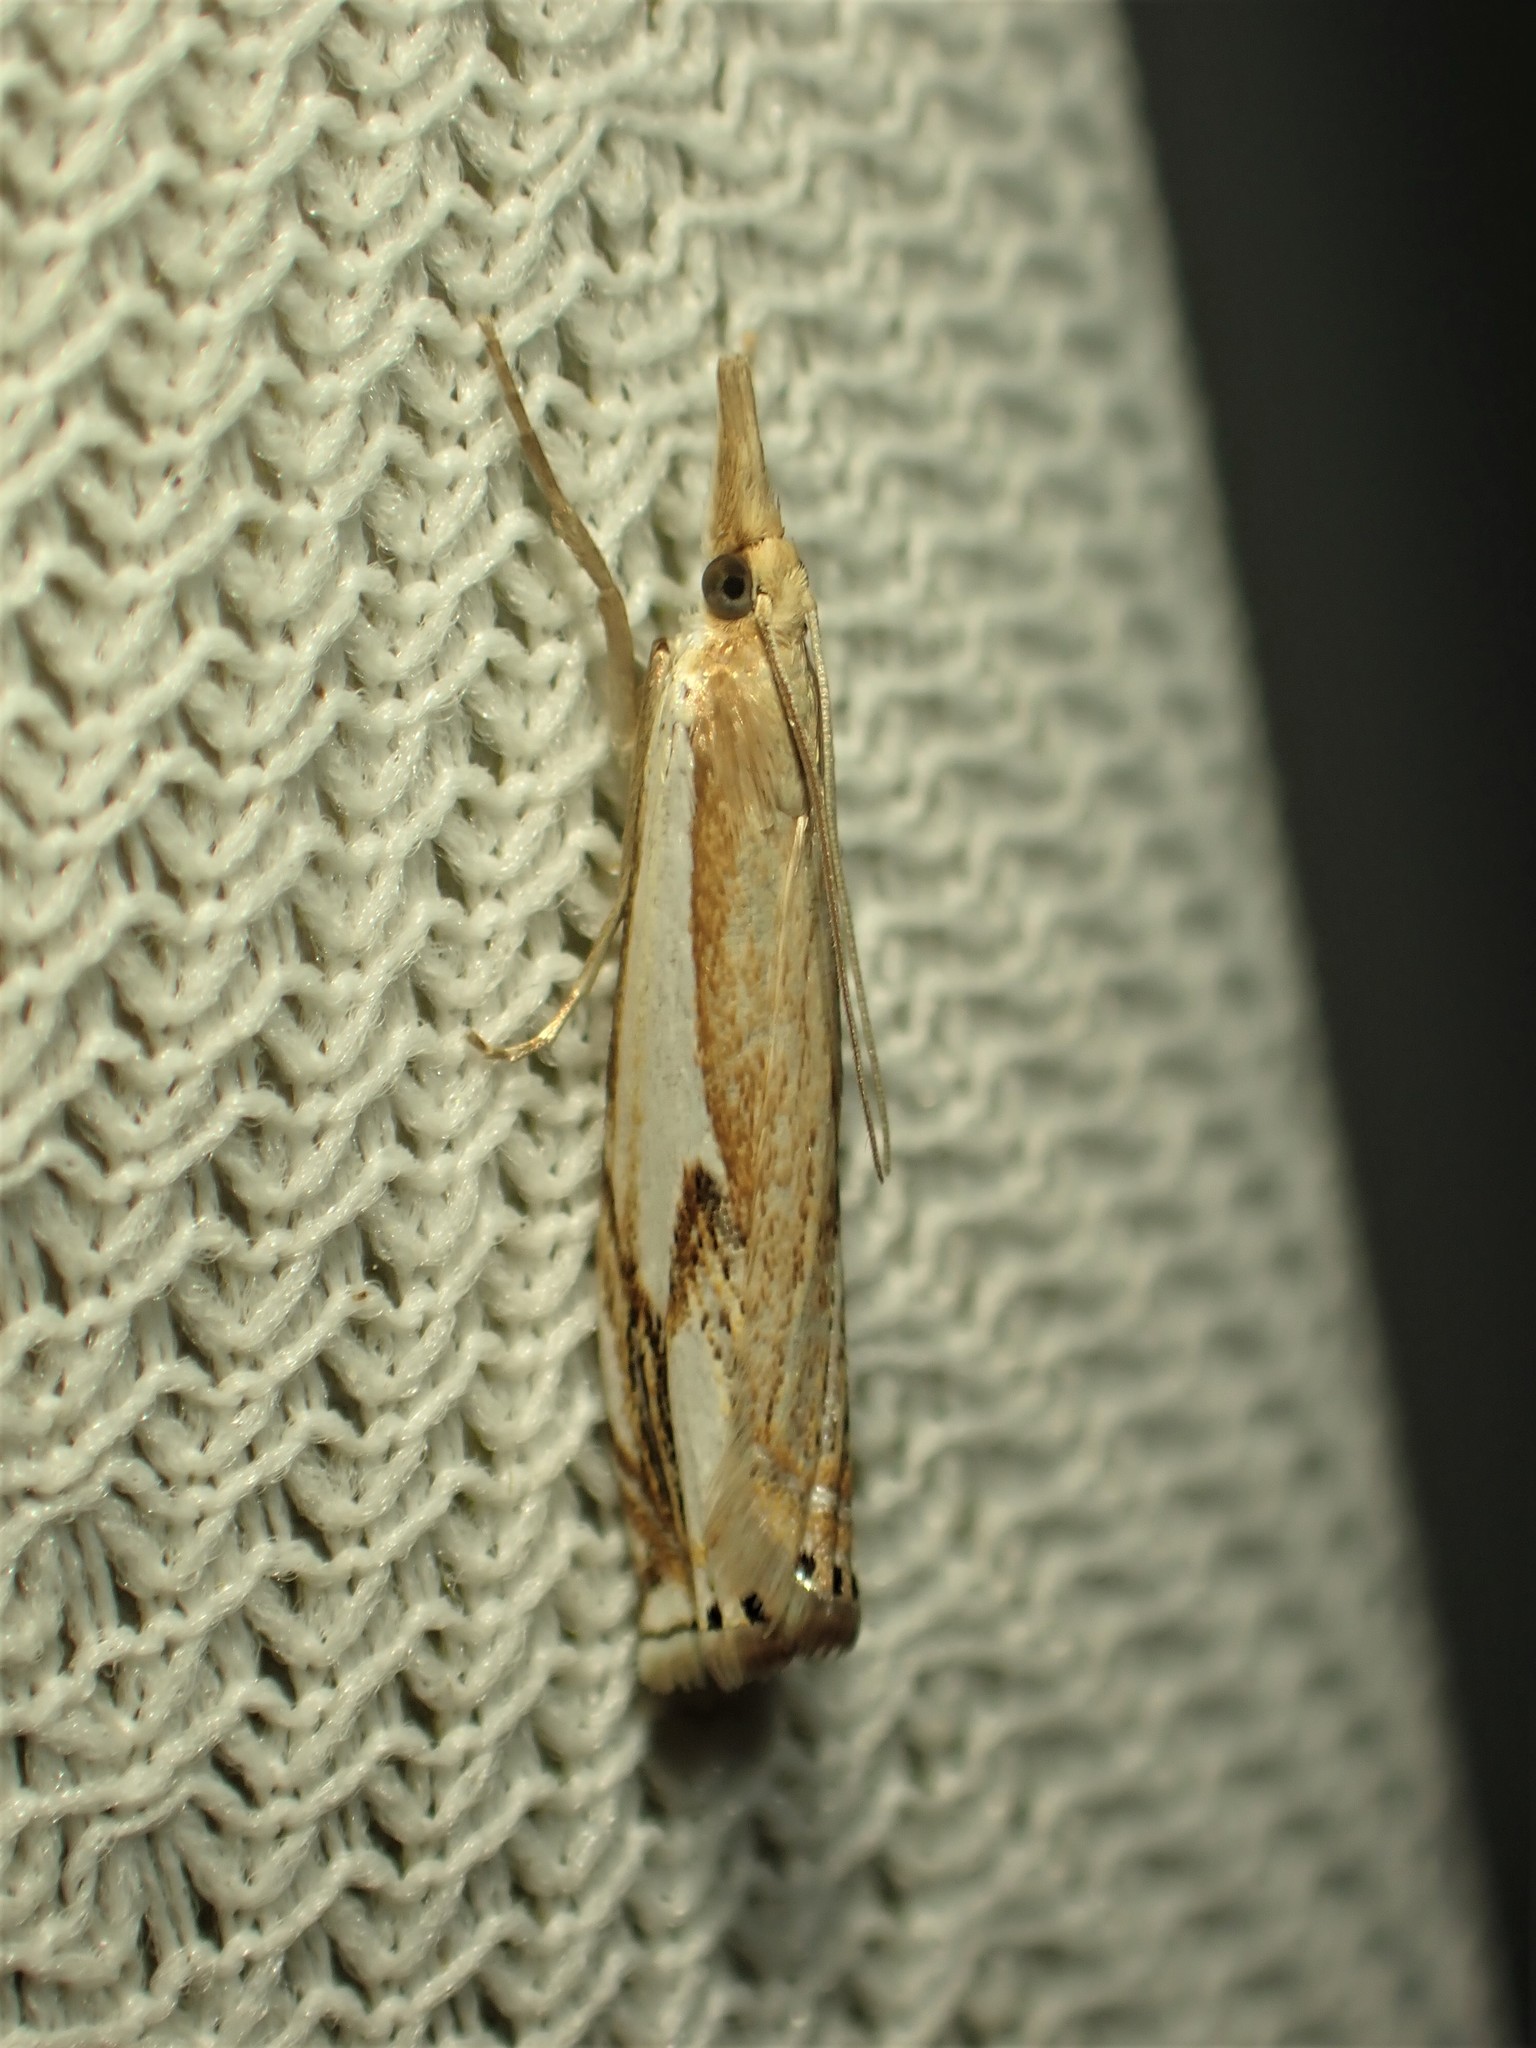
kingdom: Animalia
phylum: Arthropoda
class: Insecta
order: Lepidoptera
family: Crambidae
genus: Crambus
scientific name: Crambus agitatellus
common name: Double-banded grass-veneer
